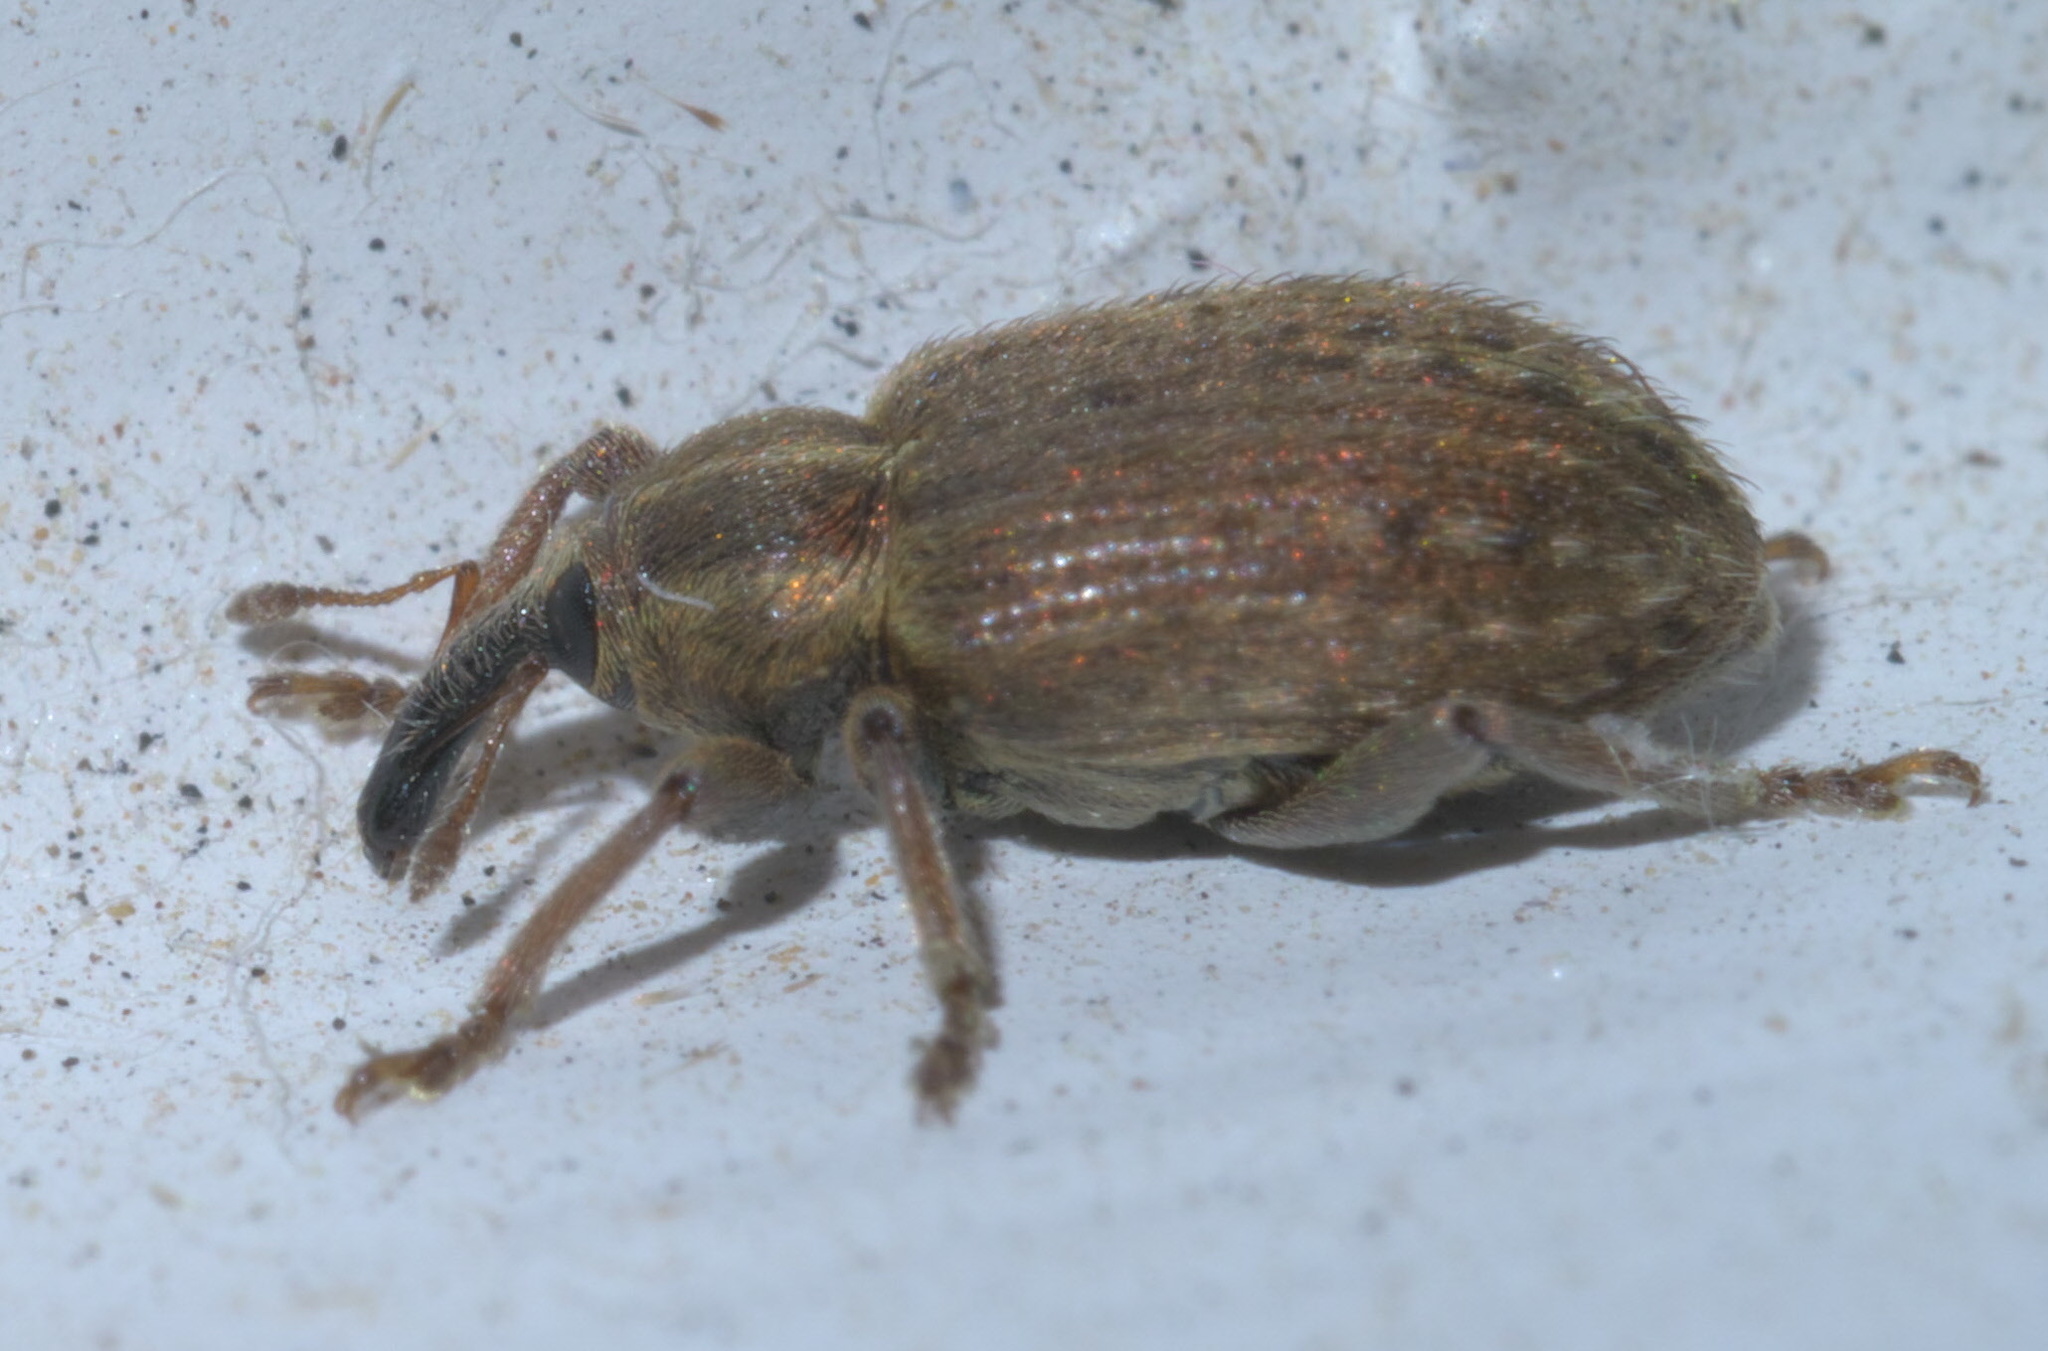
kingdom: Animalia
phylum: Arthropoda
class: Insecta
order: Coleoptera
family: Curculionidae
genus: Hypera
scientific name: Hypera postica
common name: Weevil
